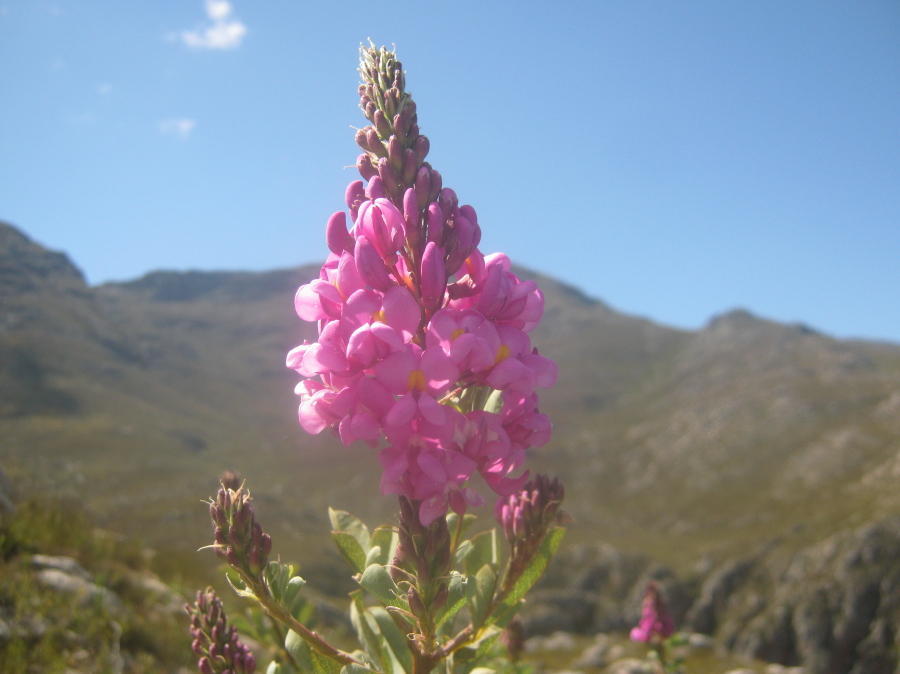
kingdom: Plantae
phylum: Tracheophyta
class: Magnoliopsida
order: Fabales
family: Fabaceae
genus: Hypocalyptus
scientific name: Hypocalyptus sophoroides
